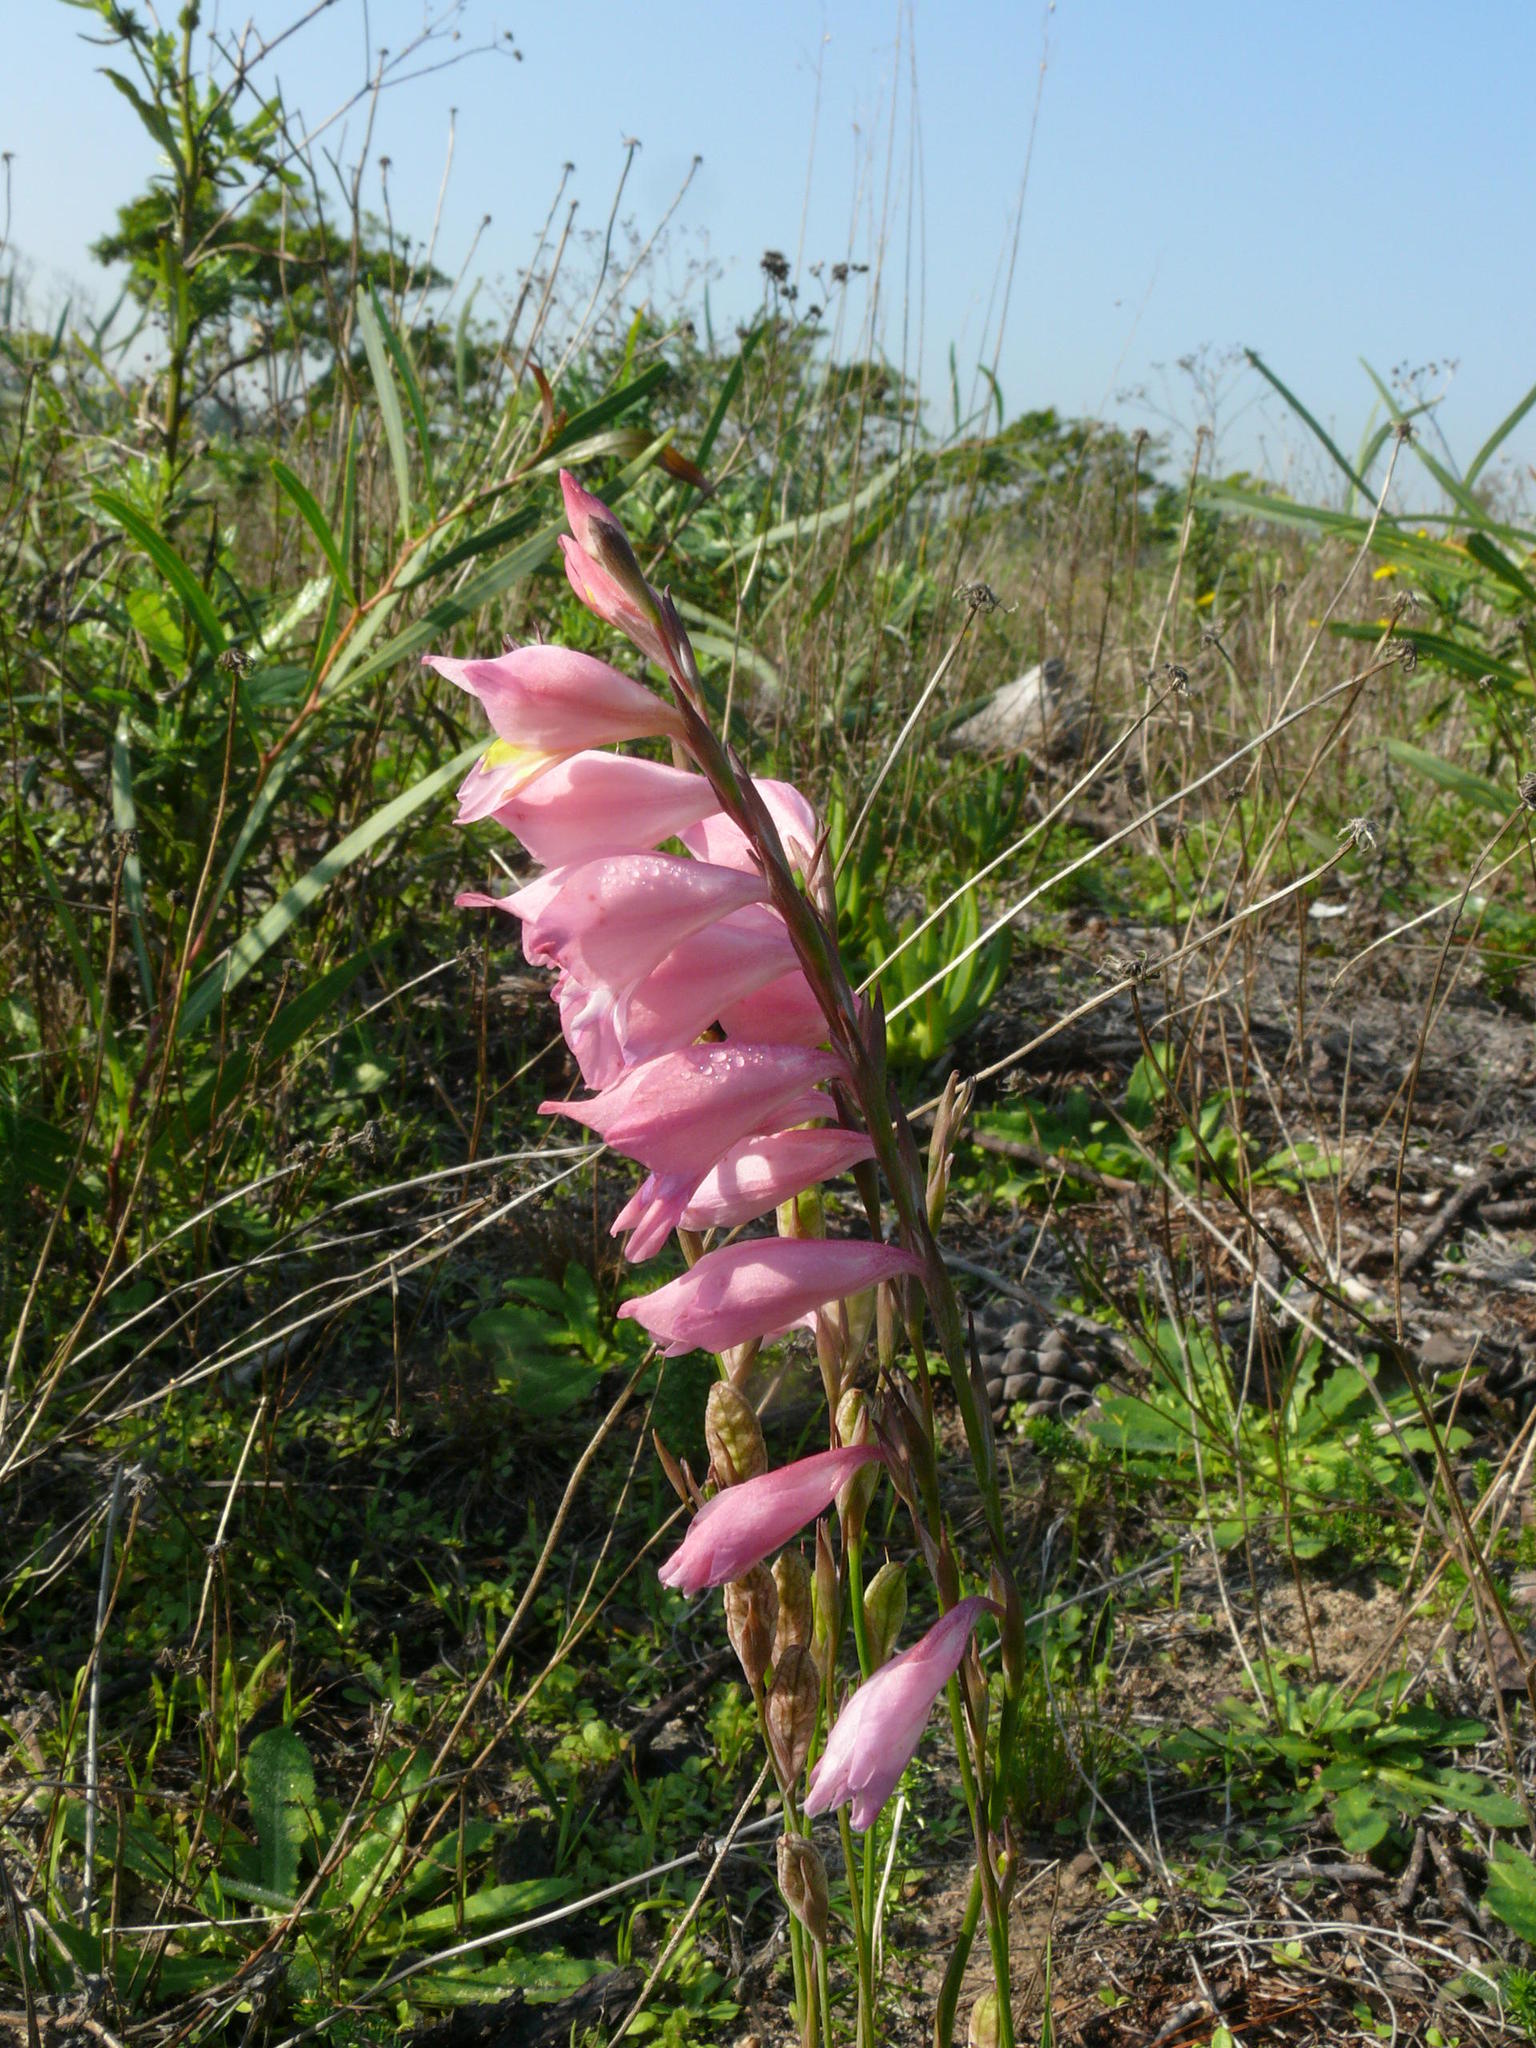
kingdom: Plantae
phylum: Tracheophyta
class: Liliopsida
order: Asparagales
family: Iridaceae
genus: Gladiolus
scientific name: Gladiolus brevifolius
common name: March pypie
